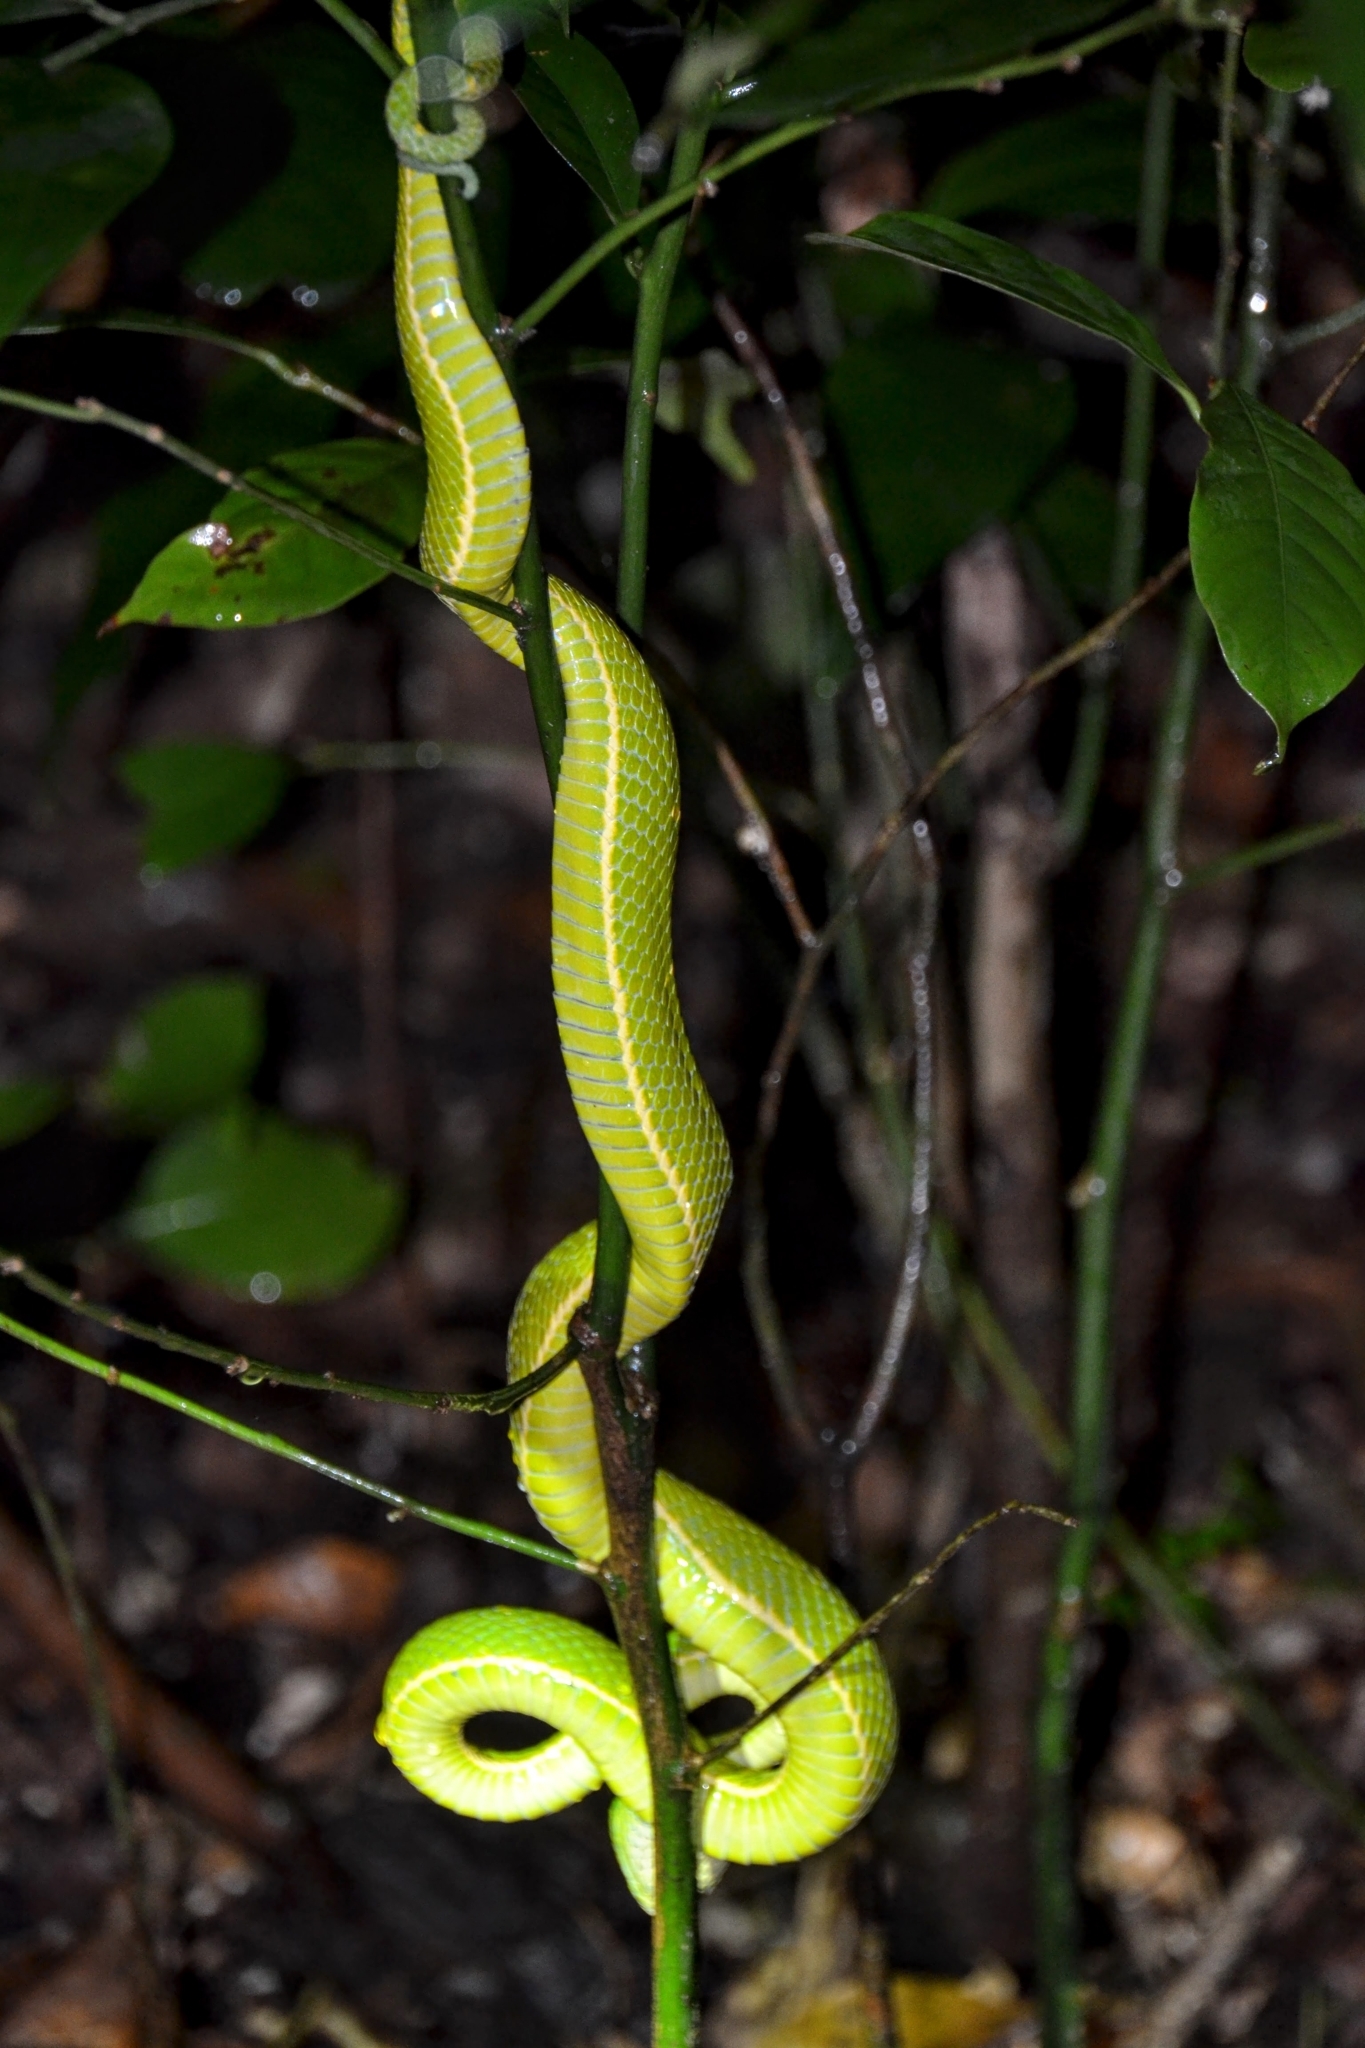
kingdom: Animalia
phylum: Chordata
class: Squamata
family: Viperidae
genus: Bothriechis
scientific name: Bothriechis lateralis
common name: Coffee palm viper
